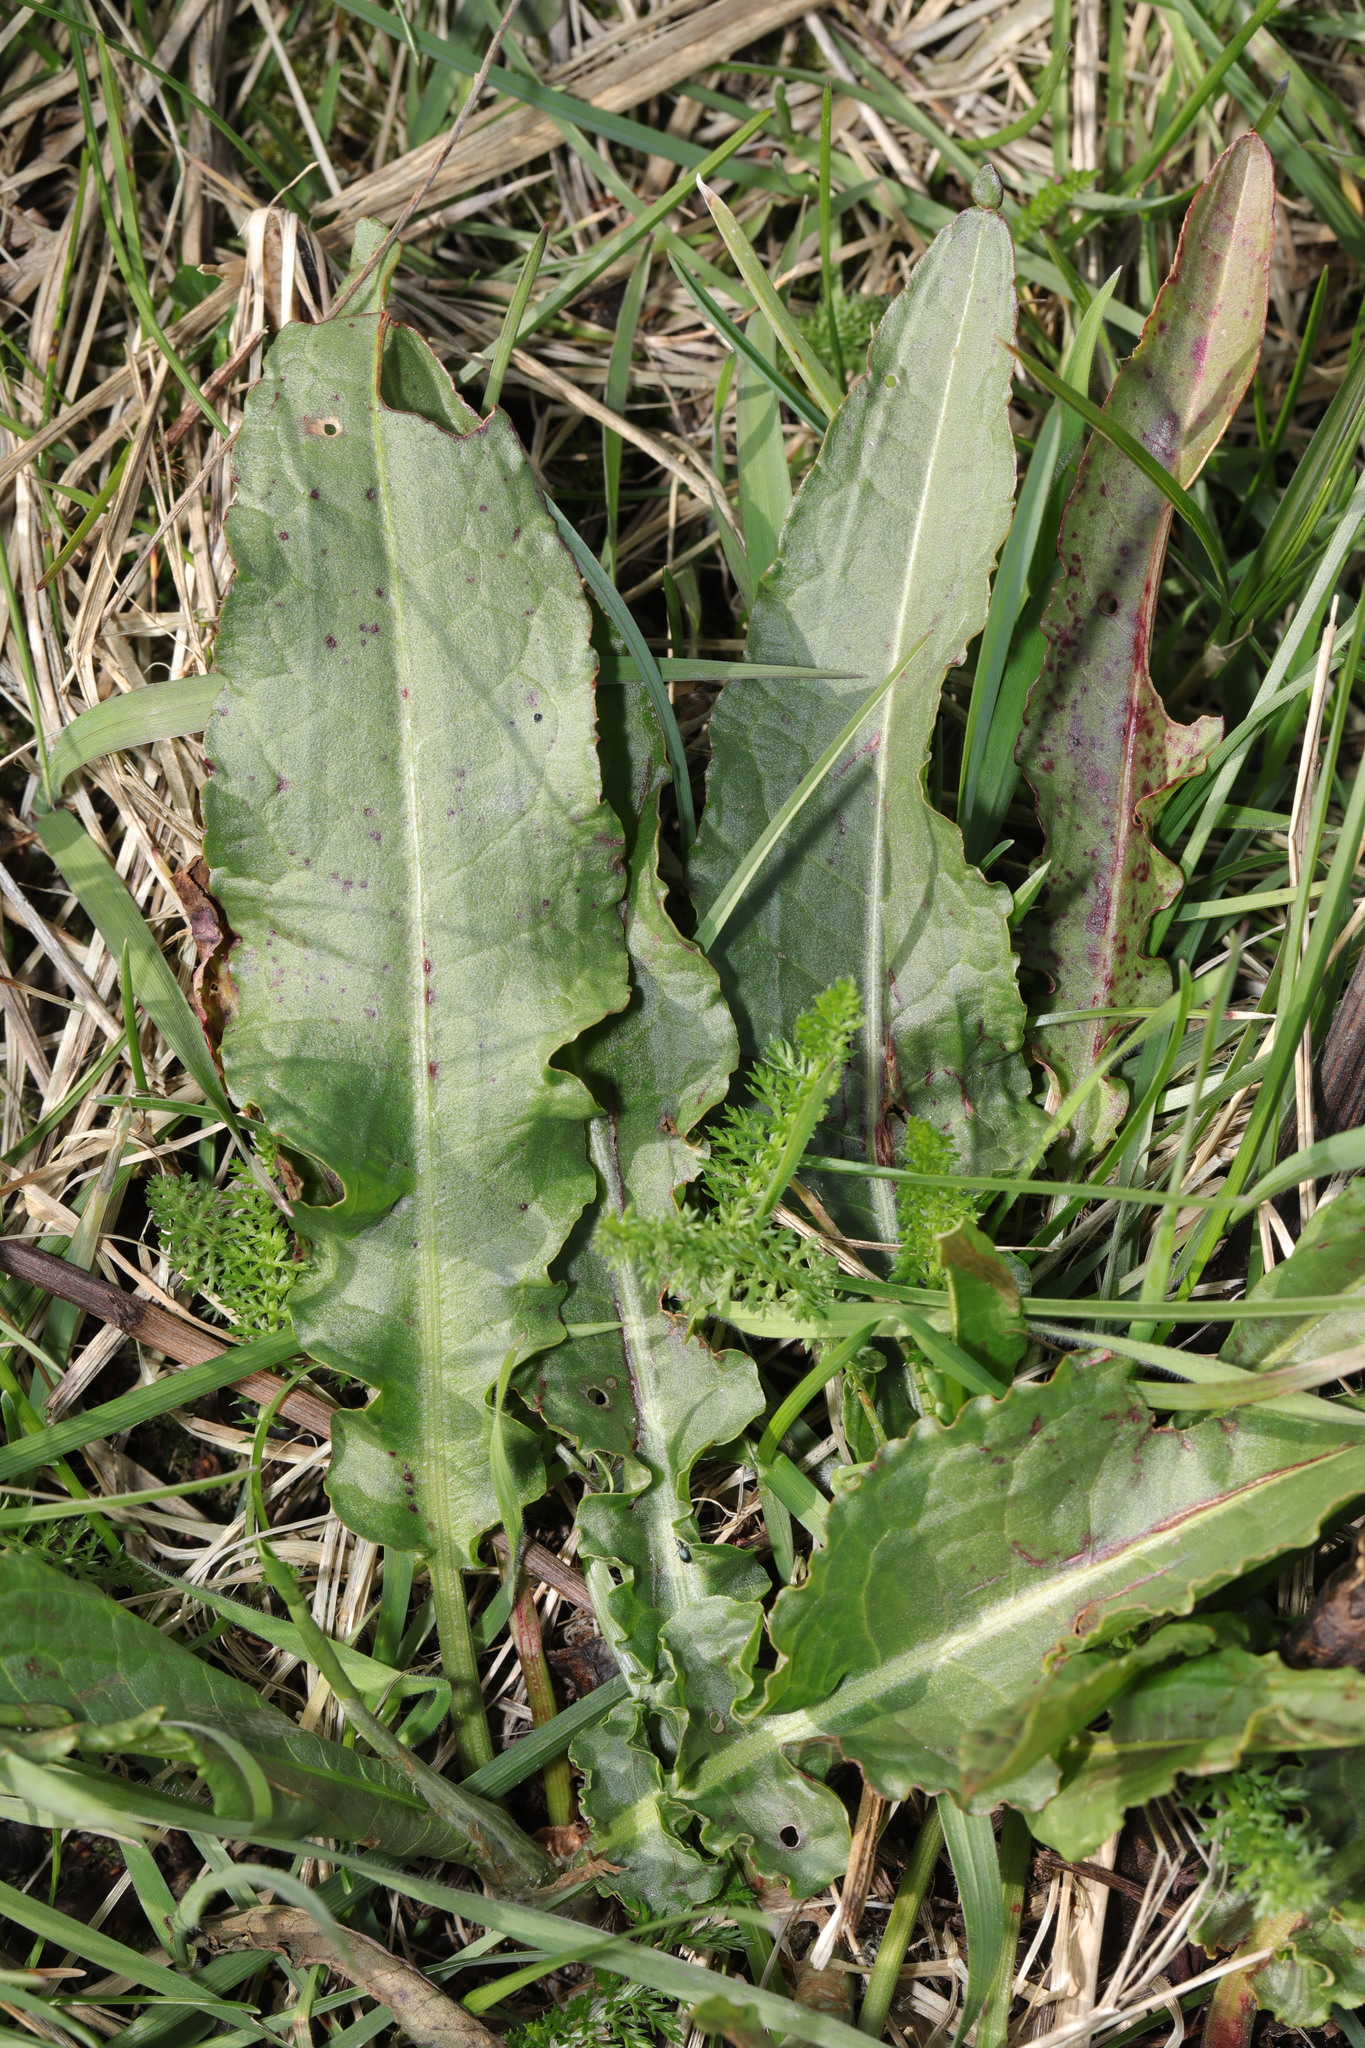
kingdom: Plantae
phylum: Tracheophyta
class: Magnoliopsida
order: Caryophyllales
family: Polygonaceae
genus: Rumex
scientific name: Rumex crispus
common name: Curled dock
